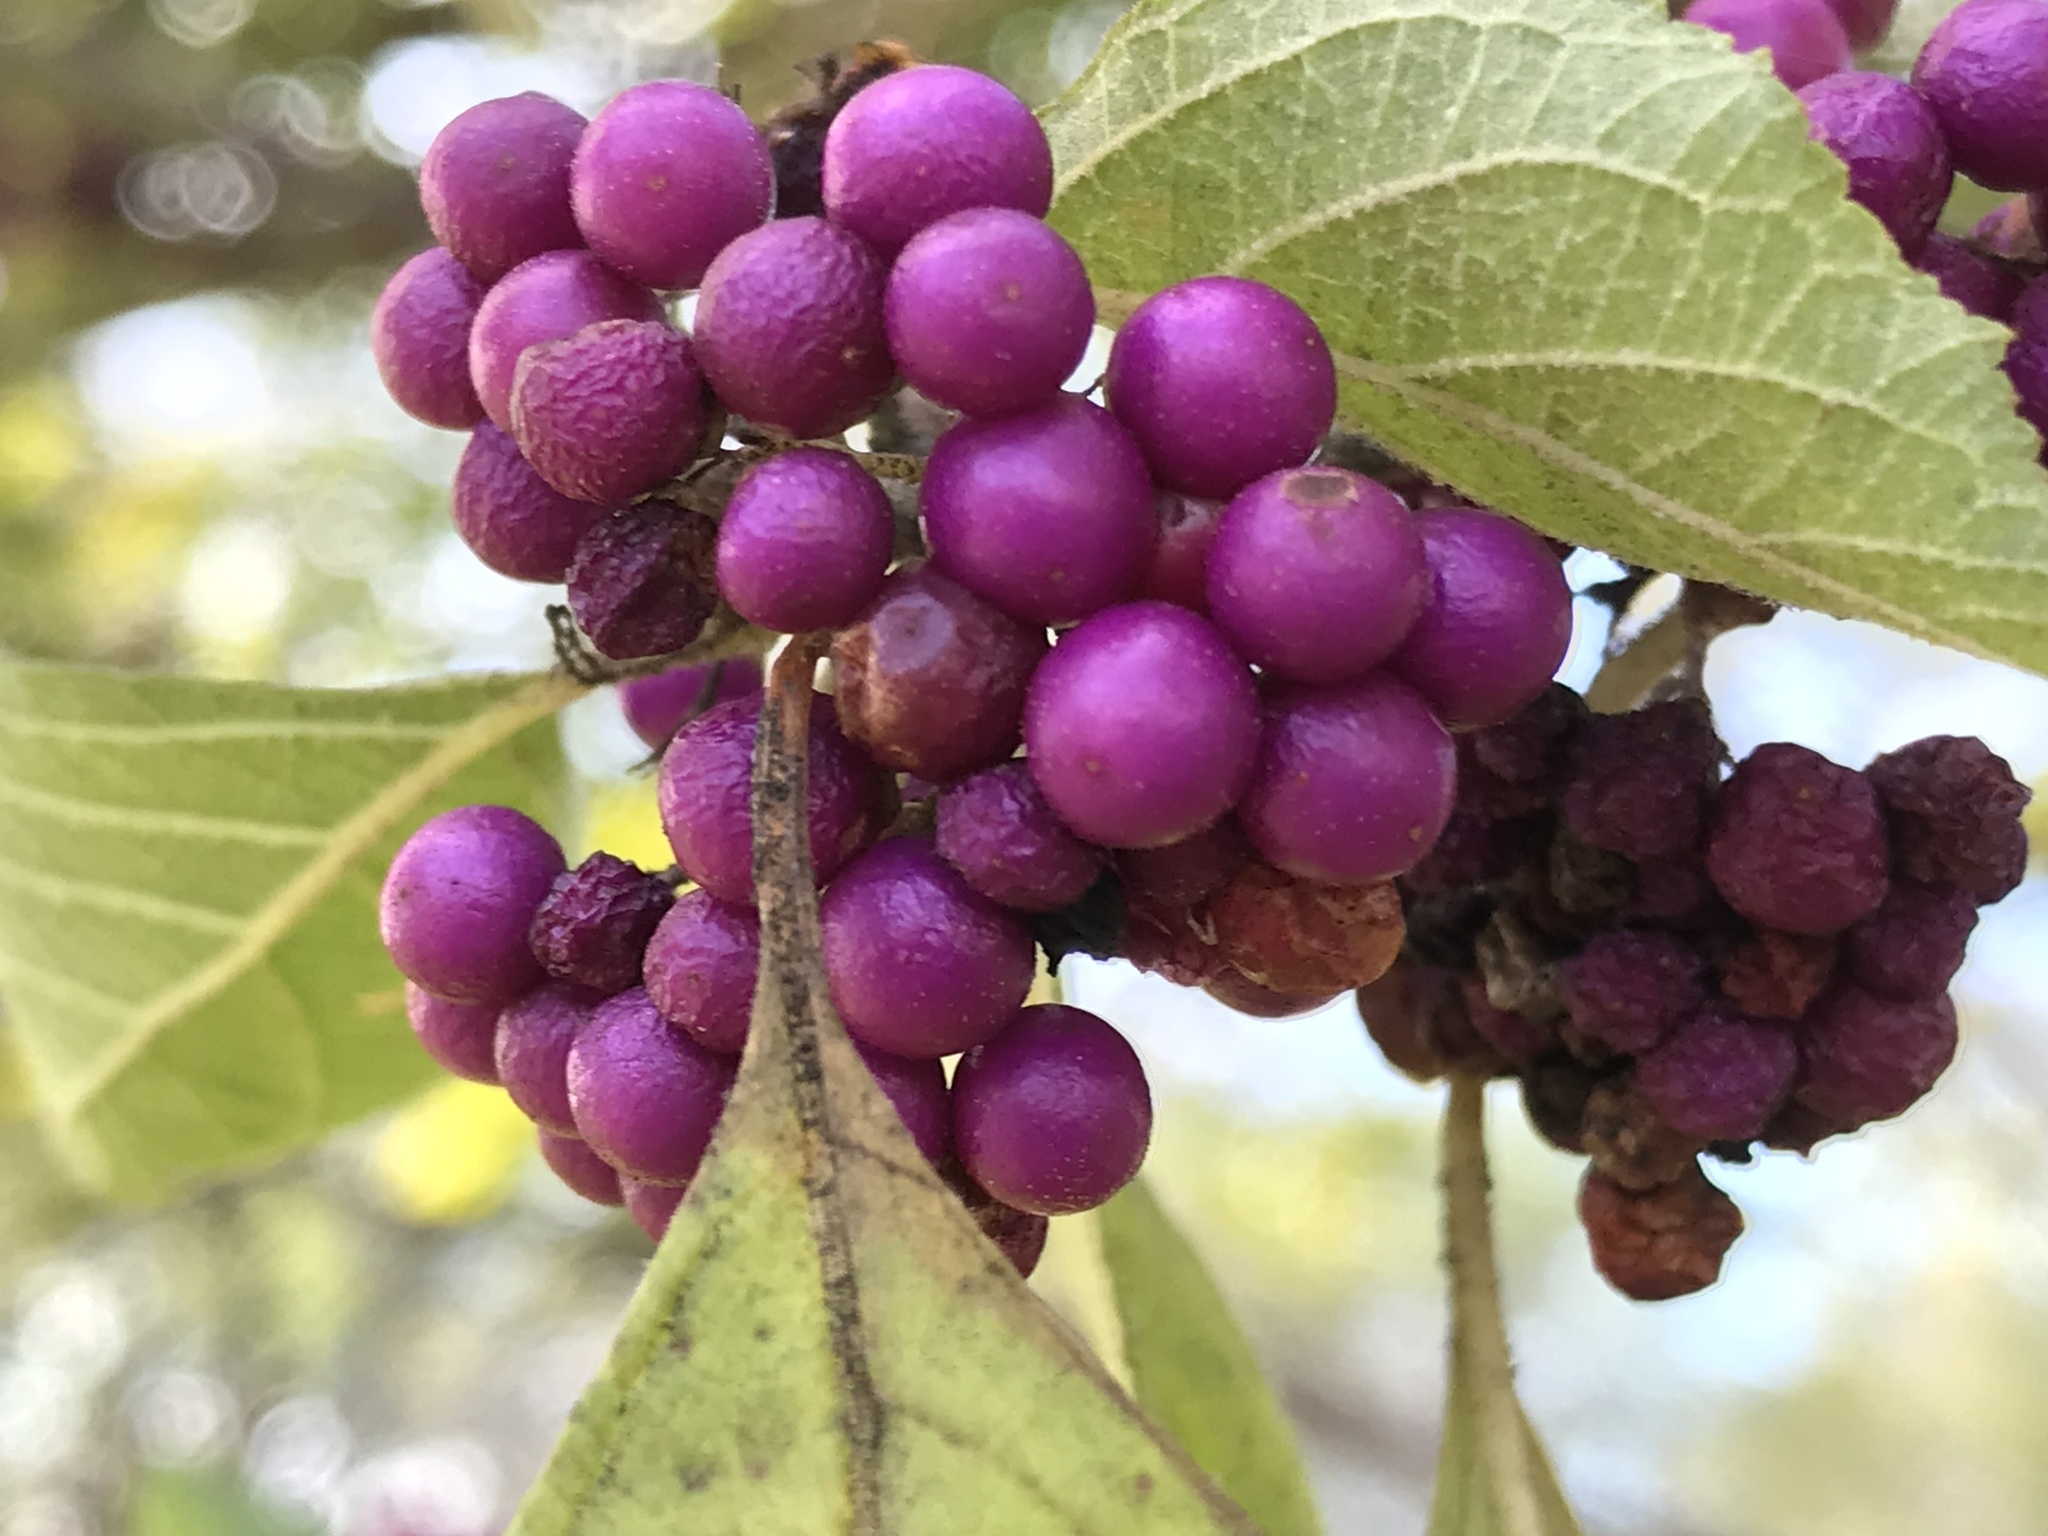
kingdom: Plantae
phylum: Tracheophyta
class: Magnoliopsida
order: Lamiales
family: Lamiaceae
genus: Callicarpa
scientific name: Callicarpa americana
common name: American beautyberry
